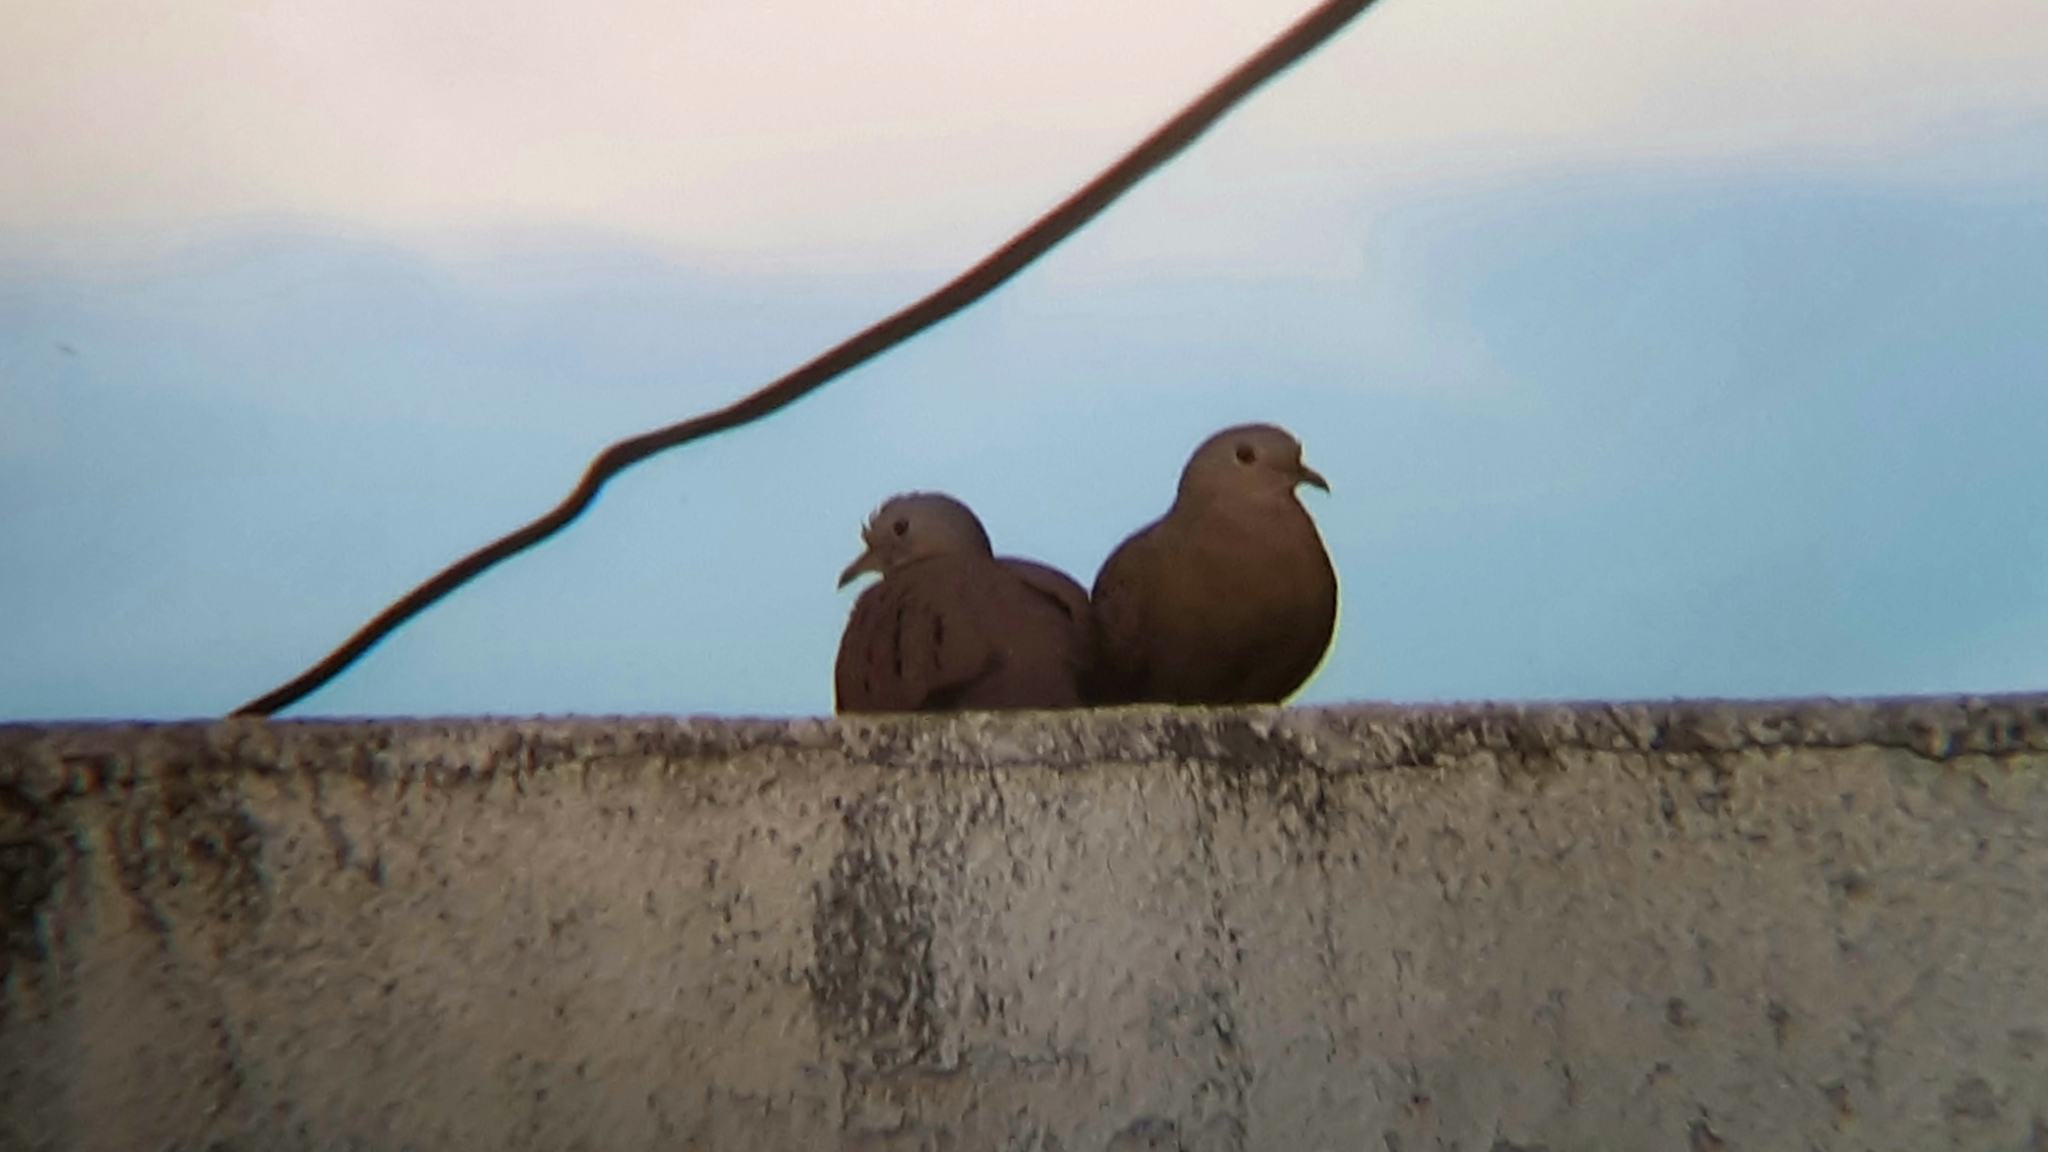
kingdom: Animalia
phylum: Chordata
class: Aves
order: Columbiformes
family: Columbidae
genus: Columbina
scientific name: Columbina talpacoti
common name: Ruddy ground dove
